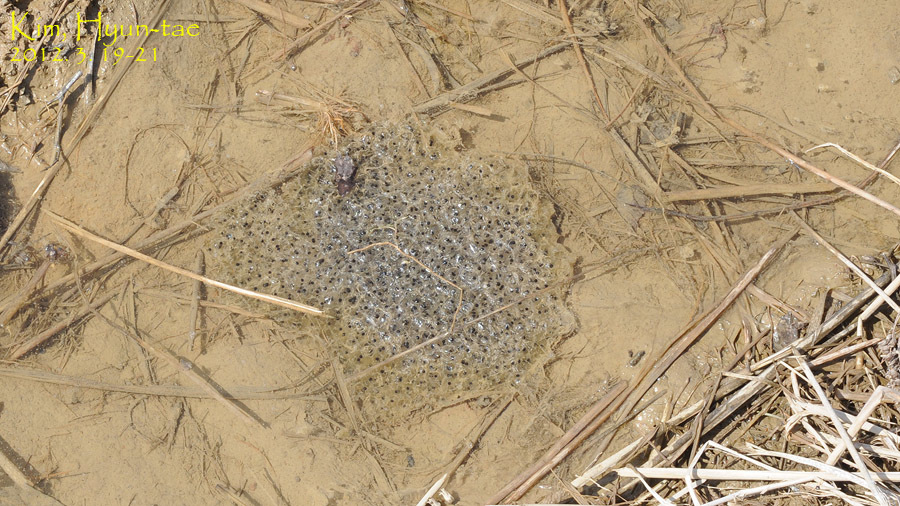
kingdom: Animalia
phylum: Chordata
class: Amphibia
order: Anura
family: Ranidae
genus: Rana
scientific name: Rana uenoi
